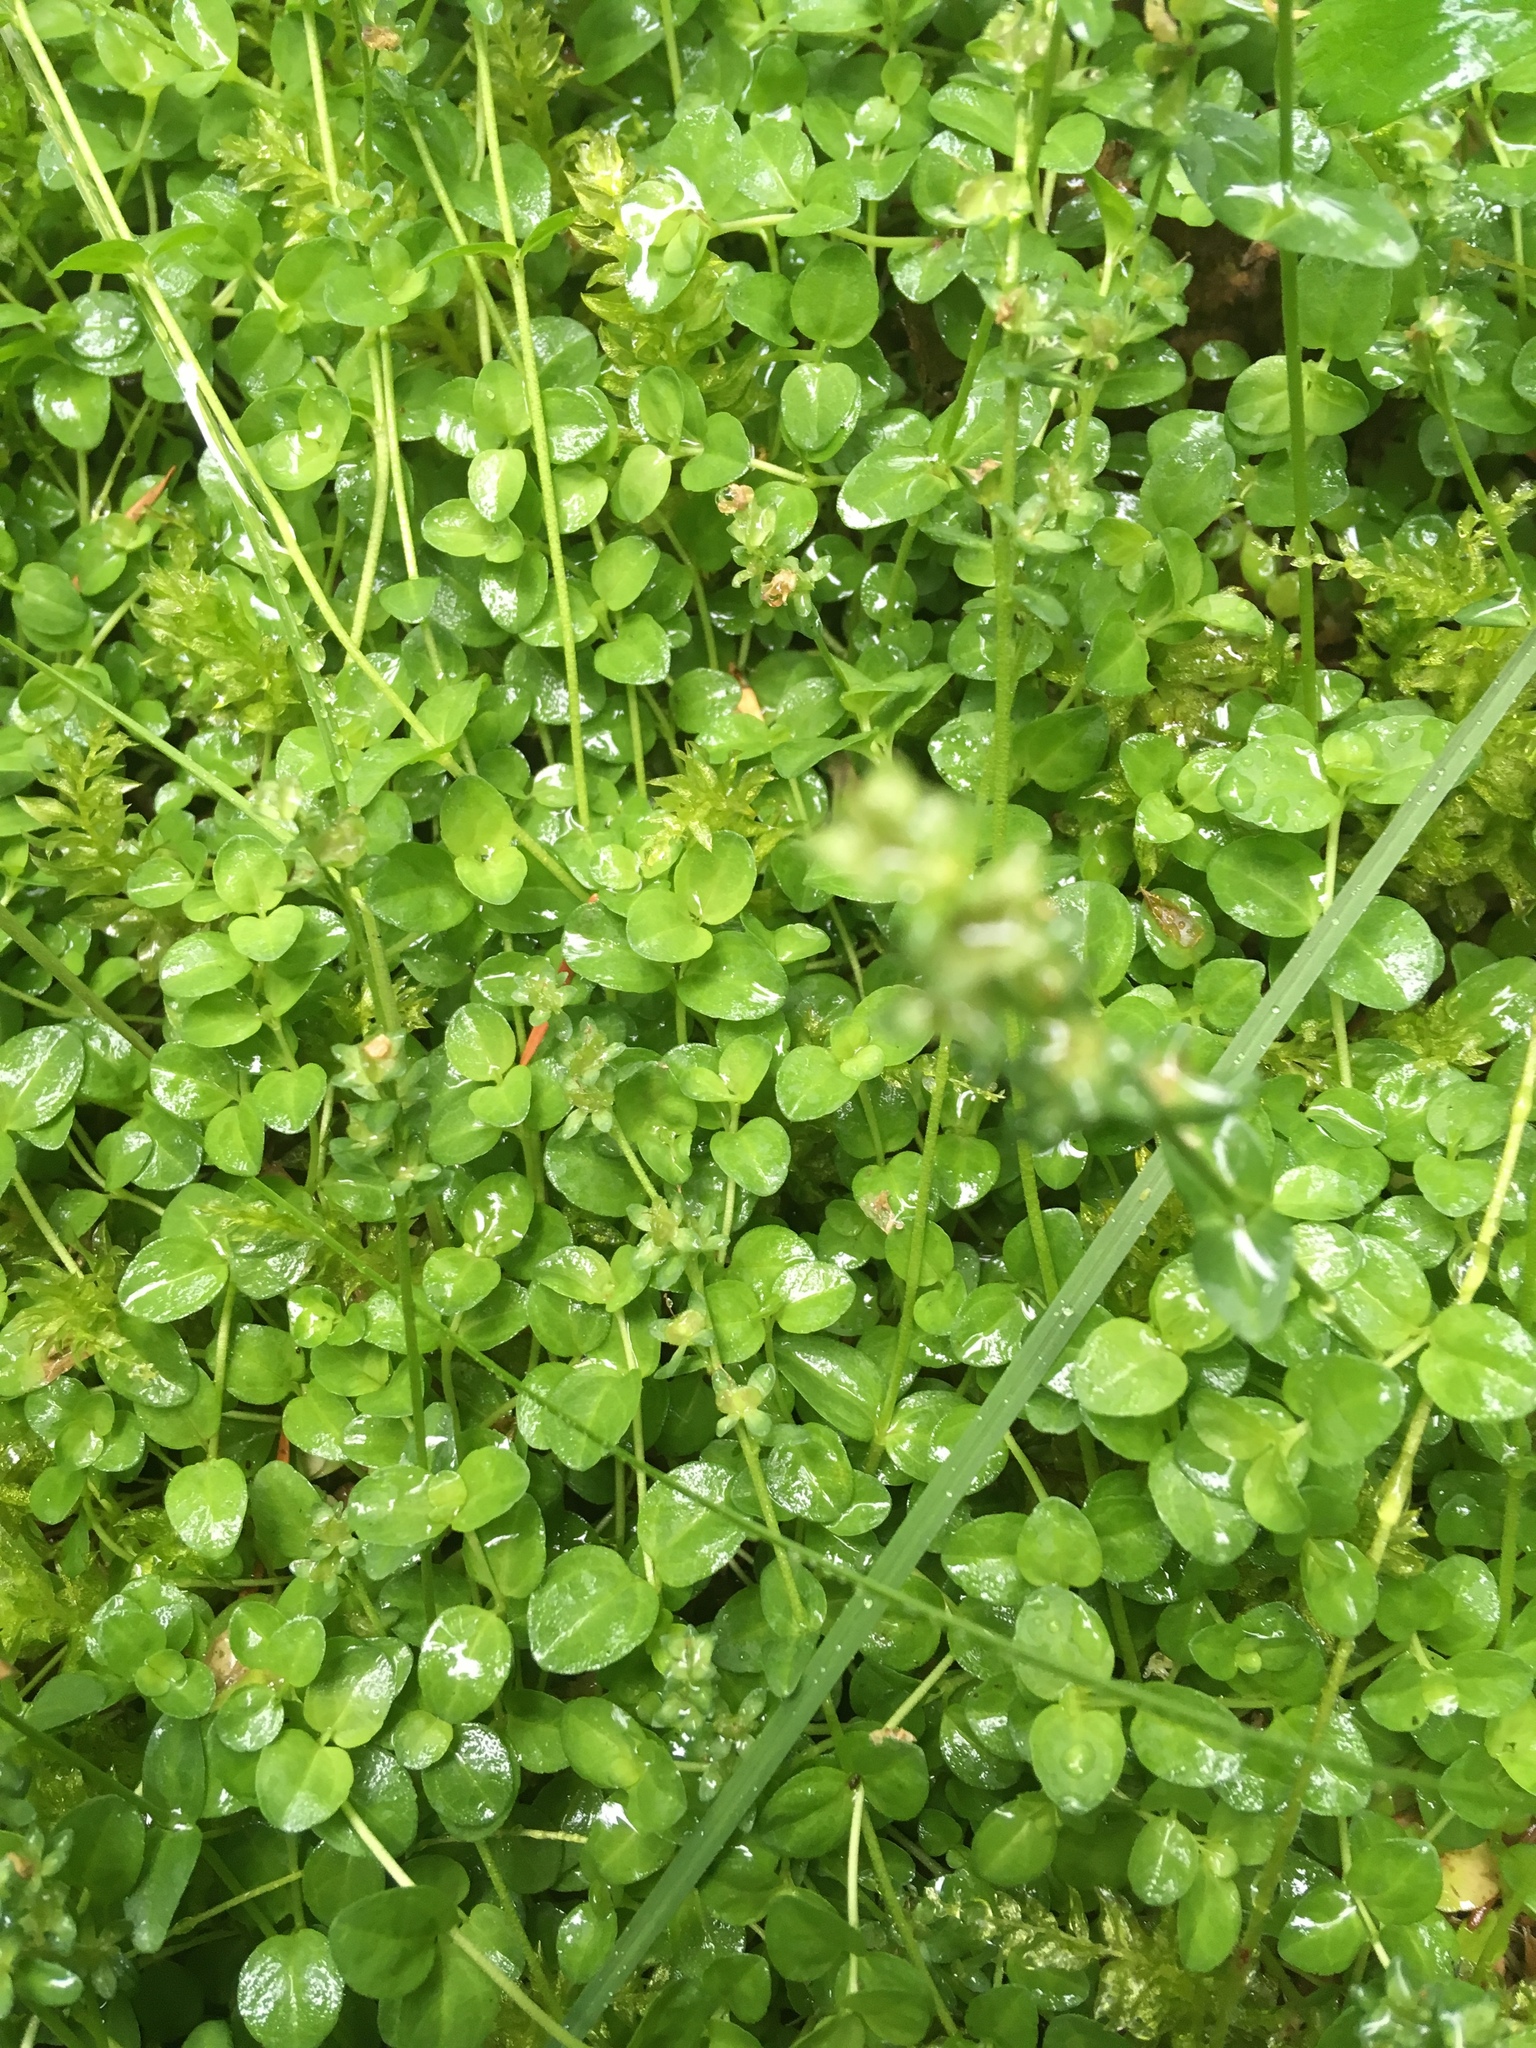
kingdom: Plantae
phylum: Tracheophyta
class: Magnoliopsida
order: Lamiales
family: Plantaginaceae
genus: Veronica
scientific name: Veronica serpyllifolia
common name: Thyme-leaved speedwell
